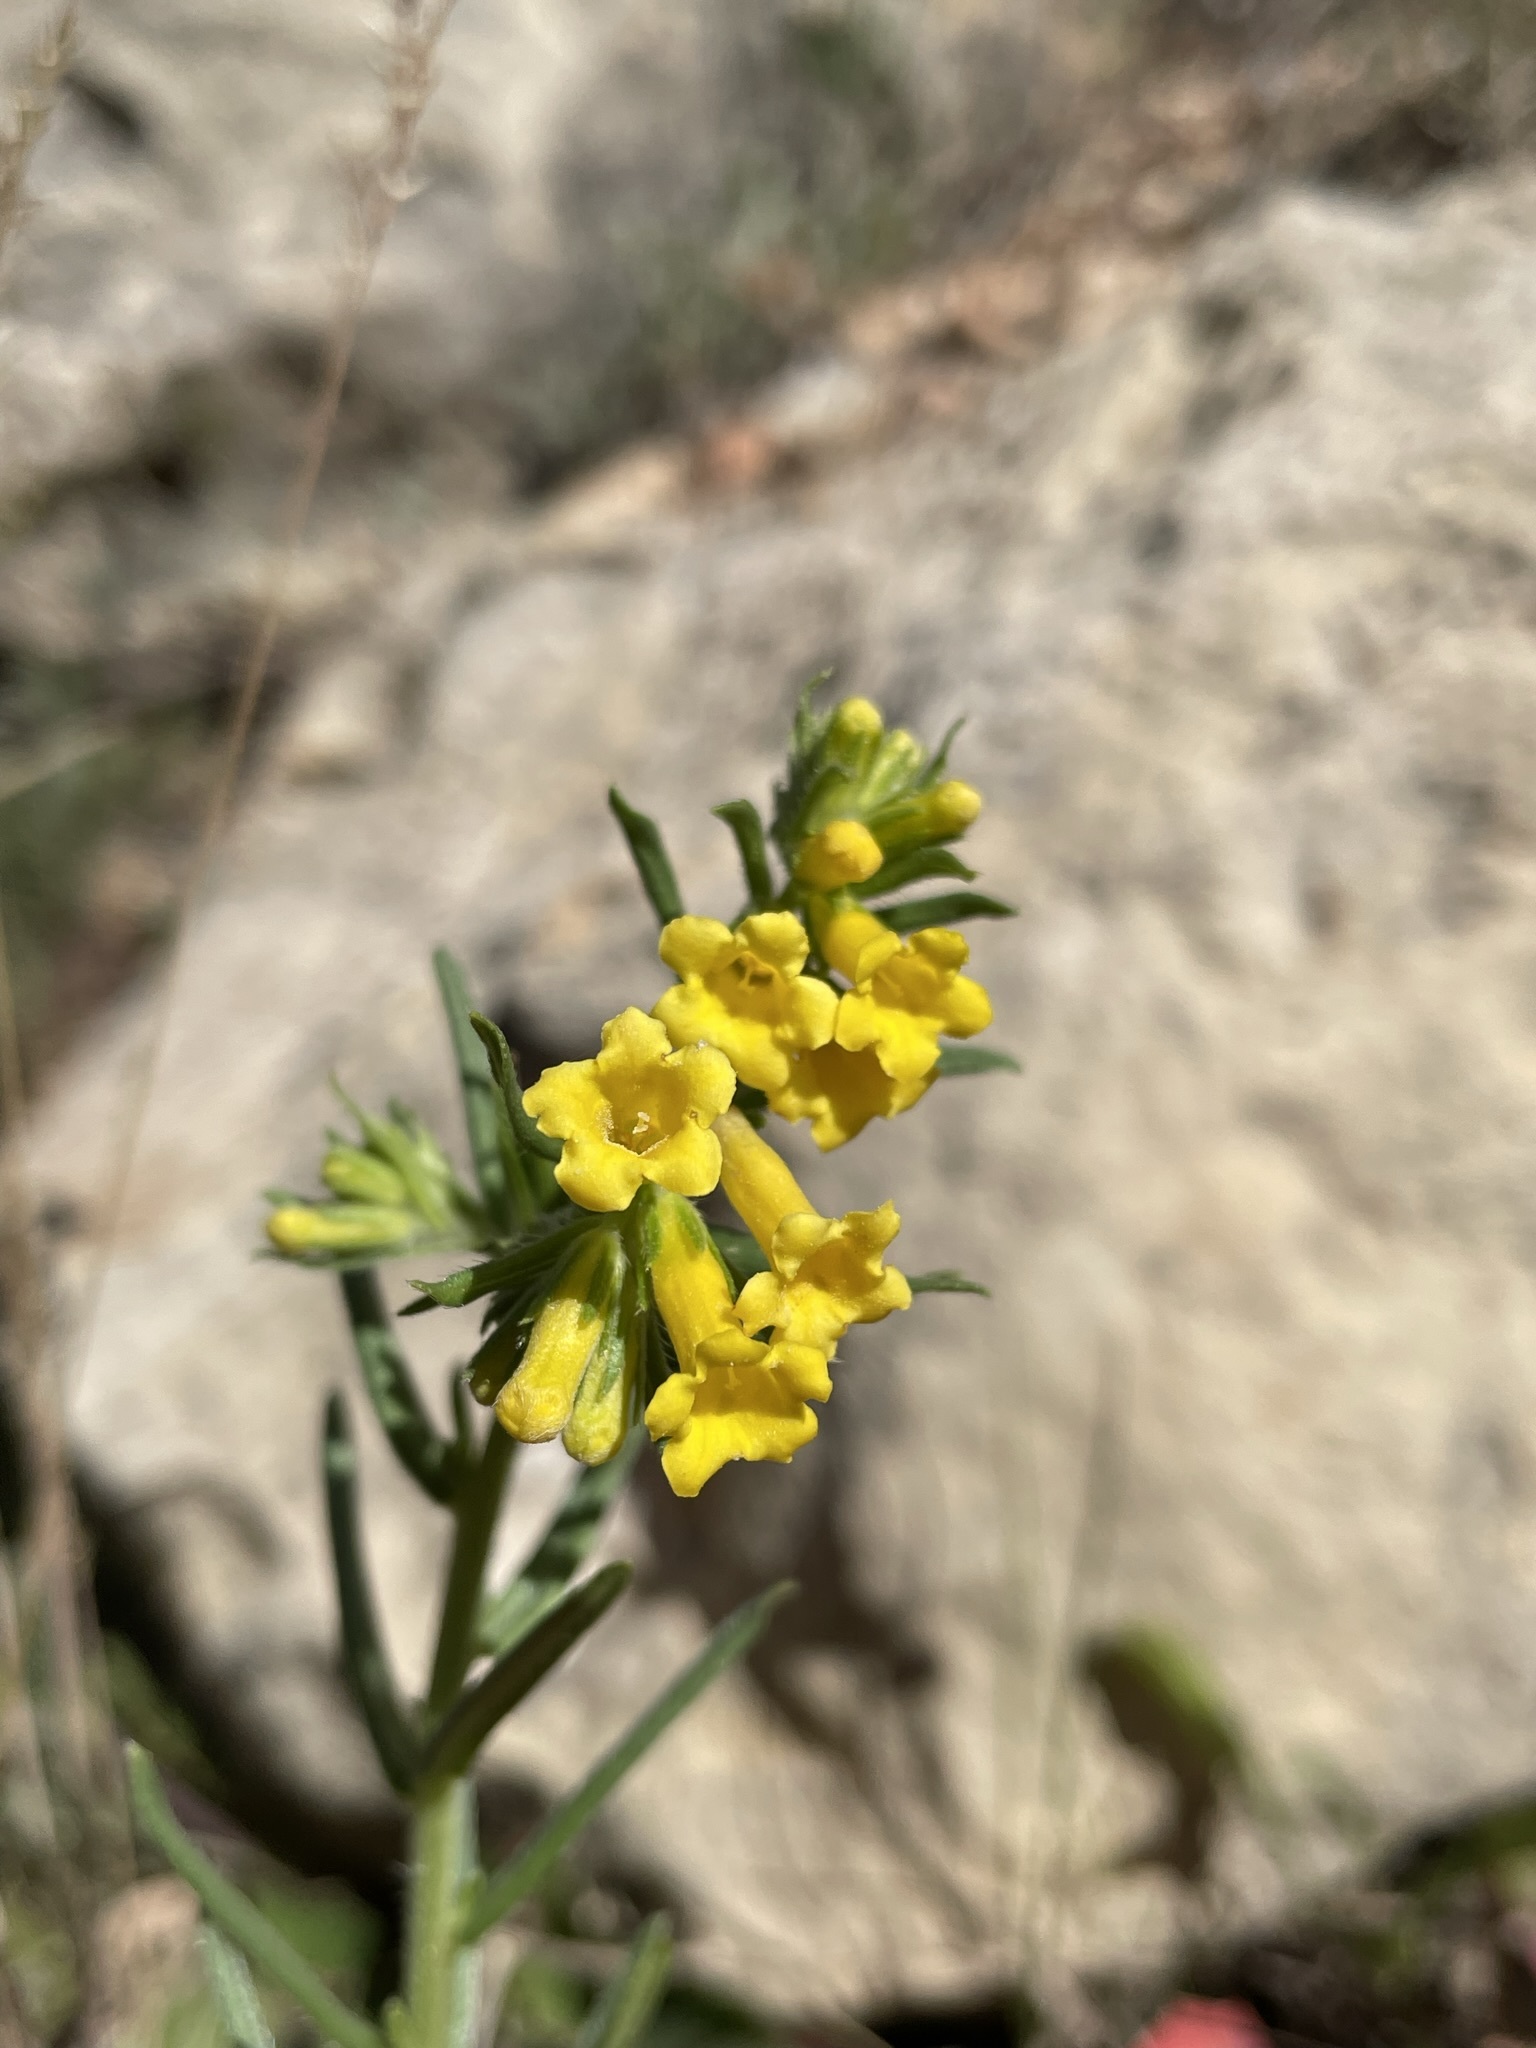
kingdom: Plantae
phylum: Tracheophyta
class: Magnoliopsida
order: Boraginales
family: Boraginaceae
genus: Lithospermum
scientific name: Lithospermum multiflorum
